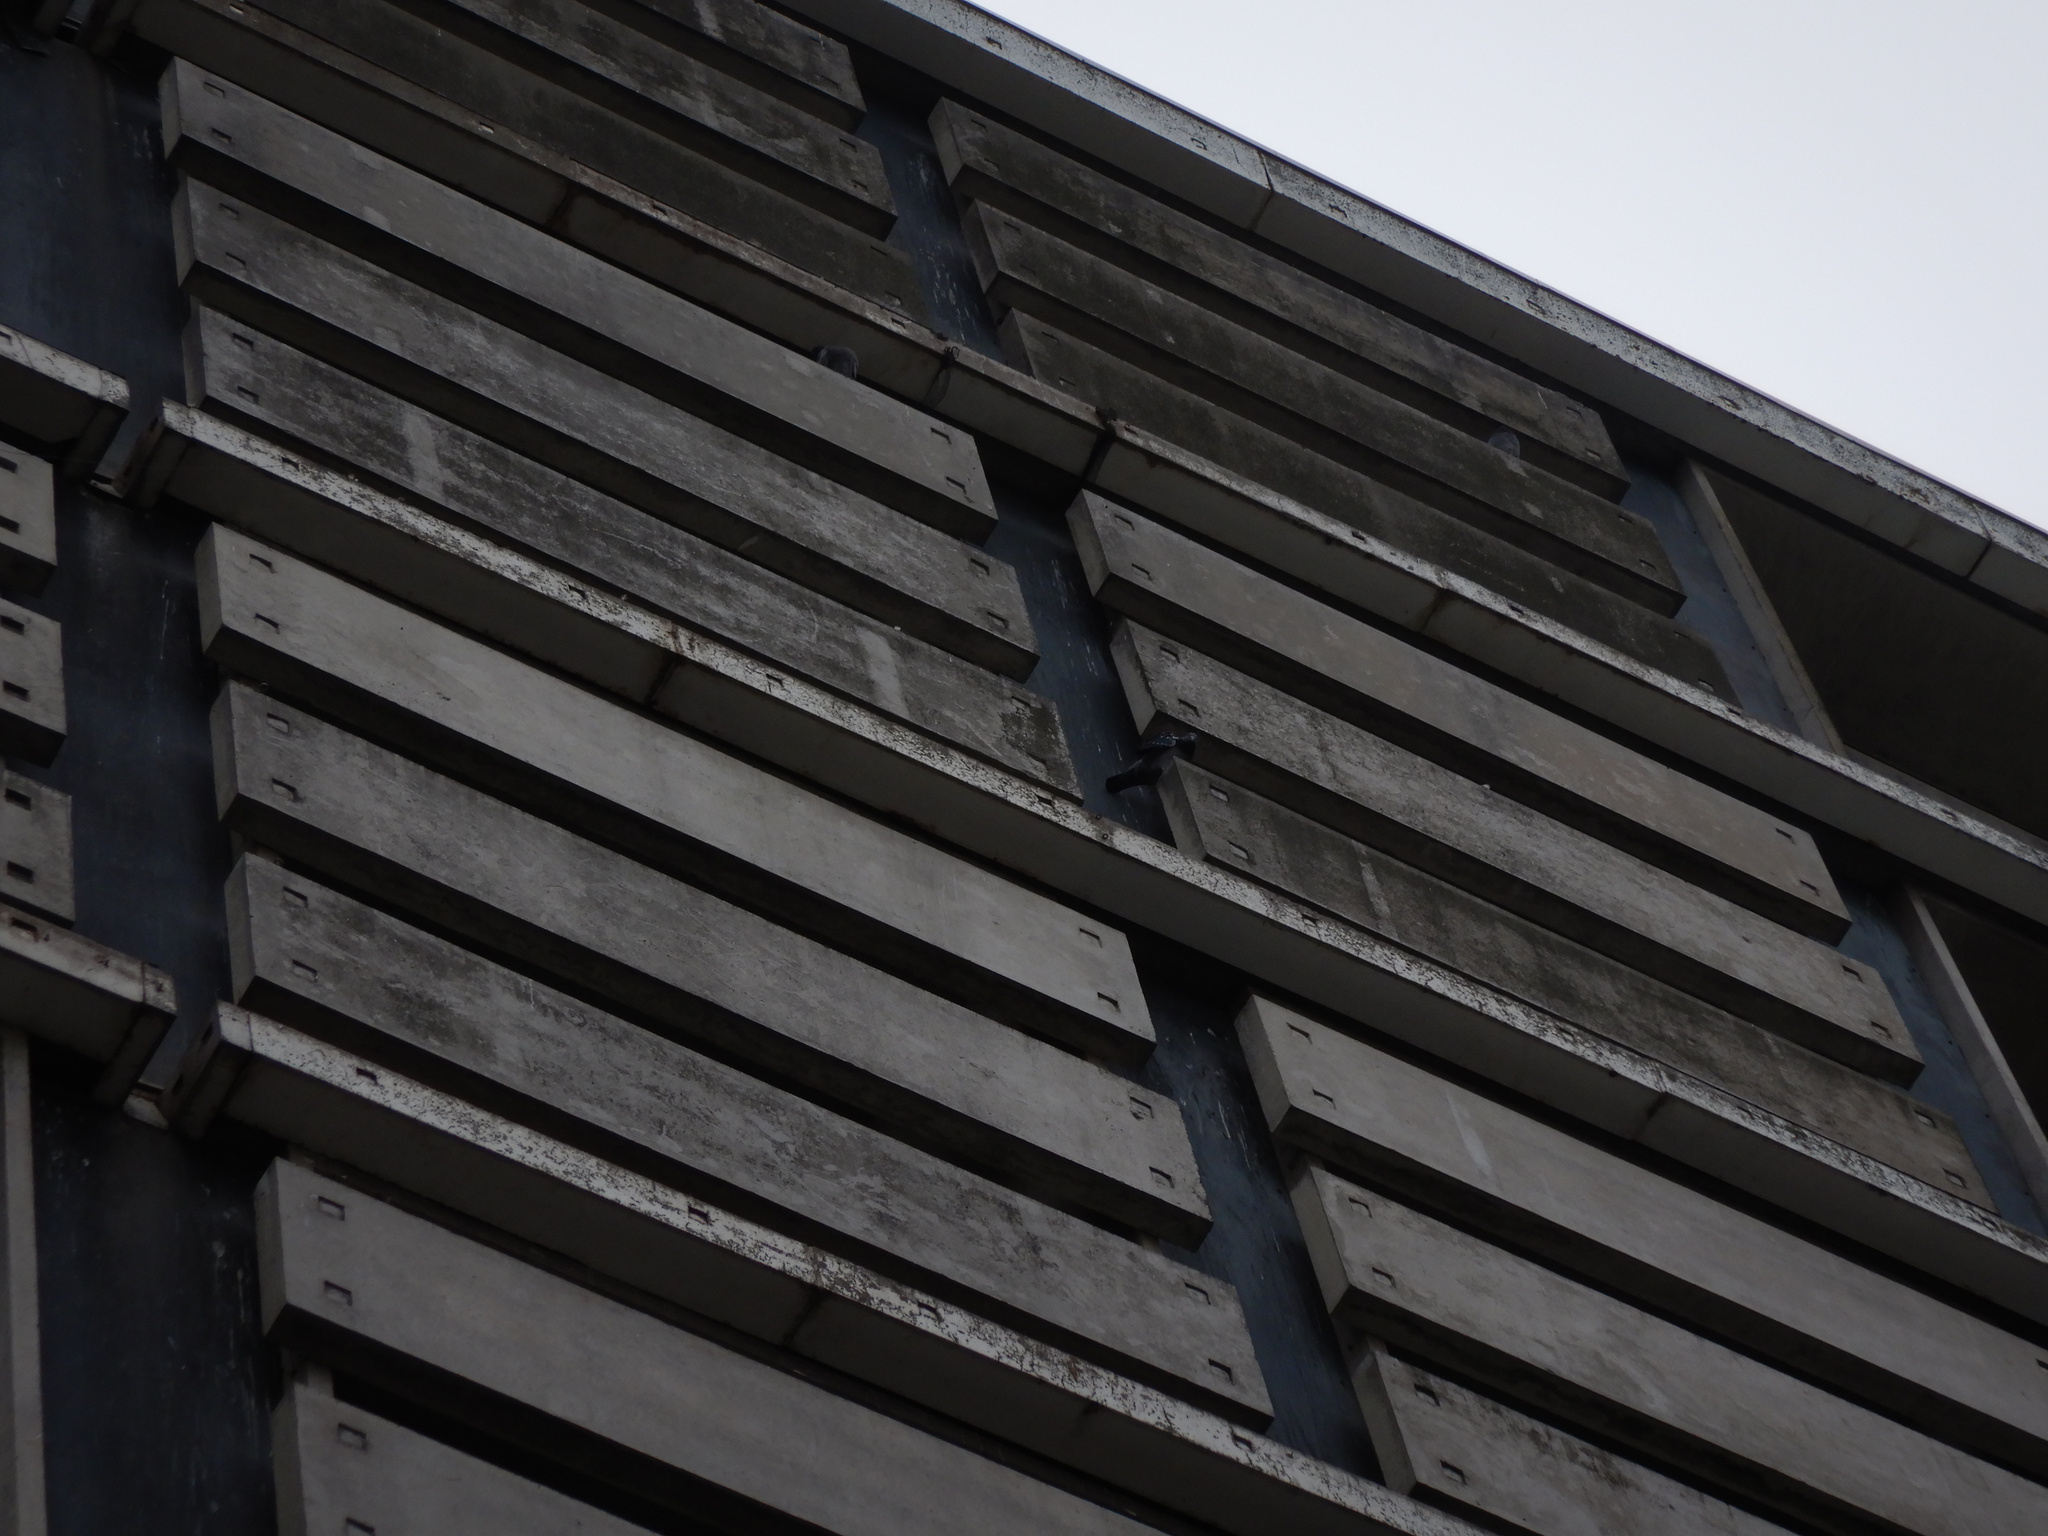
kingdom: Animalia
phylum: Chordata
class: Aves
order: Columbiformes
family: Columbidae
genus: Columba
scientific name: Columba livia
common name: Rock pigeon
